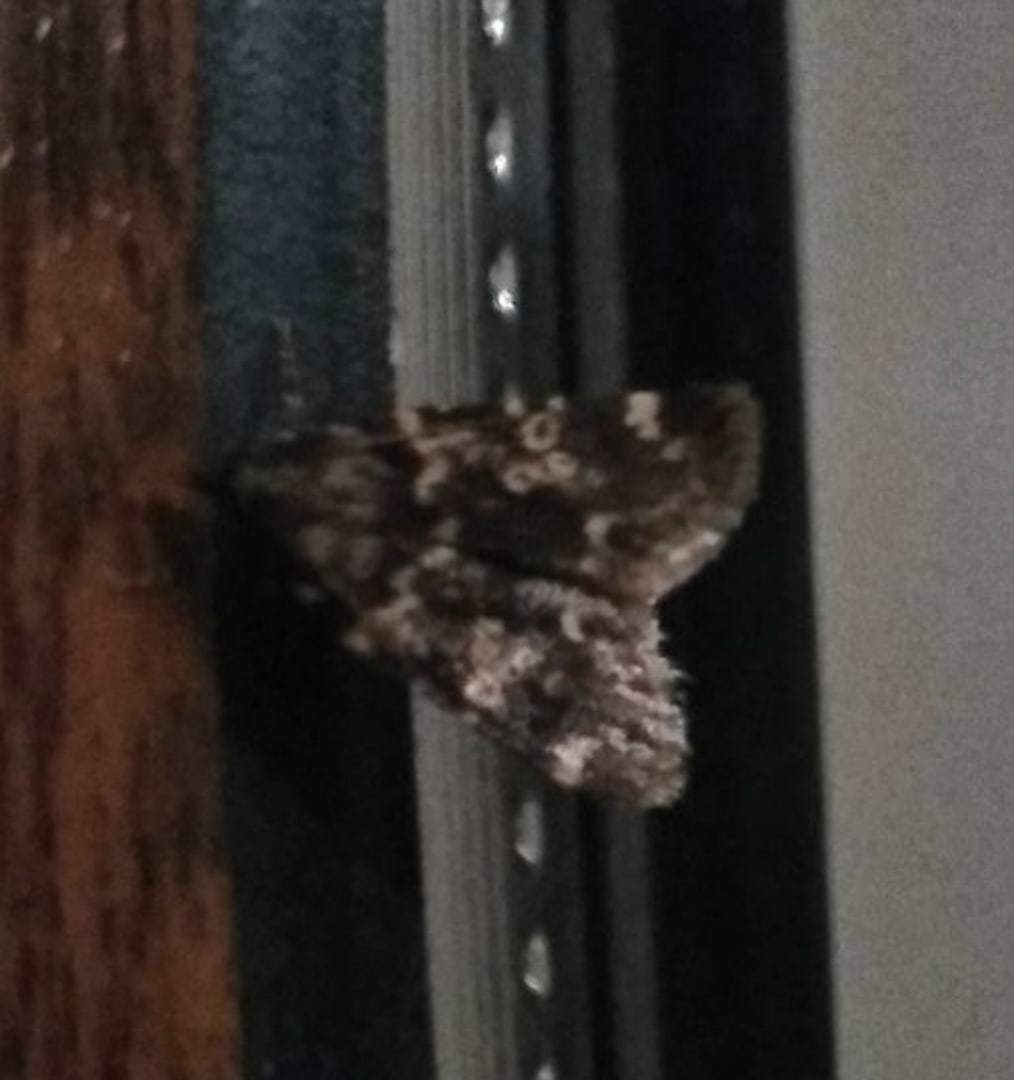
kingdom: Animalia
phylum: Arthropoda
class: Insecta
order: Lepidoptera
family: Pyralidae
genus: Aglossa
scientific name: Aglossa caprealis
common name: Small tabby
